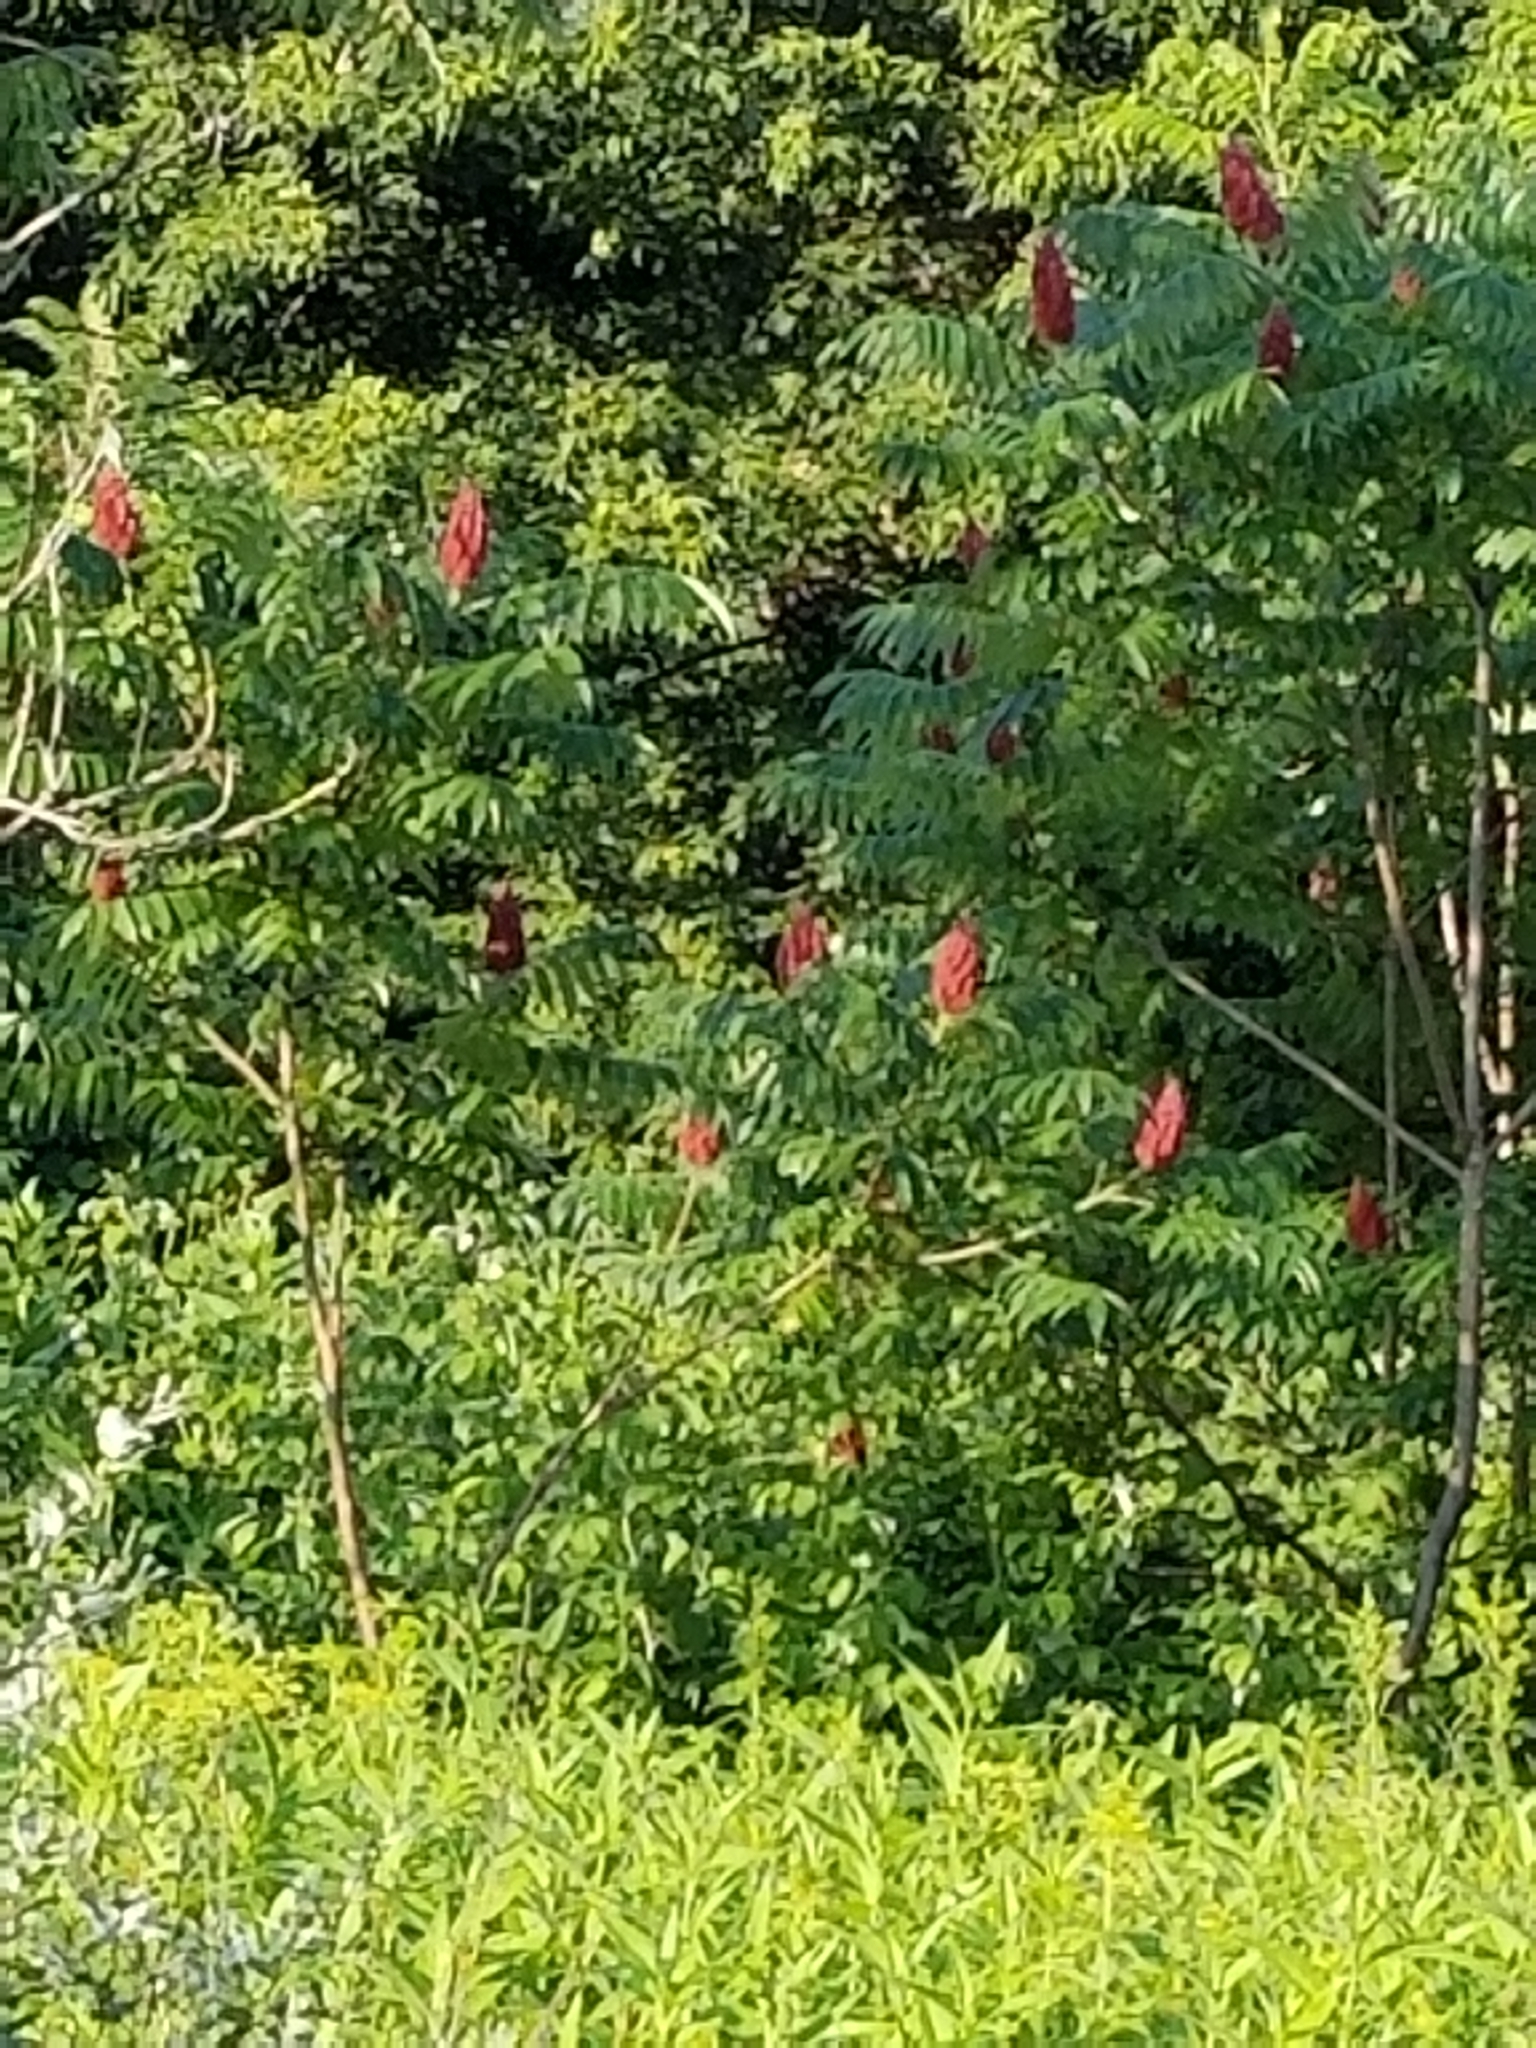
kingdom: Plantae
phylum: Tracheophyta
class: Magnoliopsida
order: Sapindales
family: Anacardiaceae
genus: Rhus
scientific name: Rhus typhina
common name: Staghorn sumac
